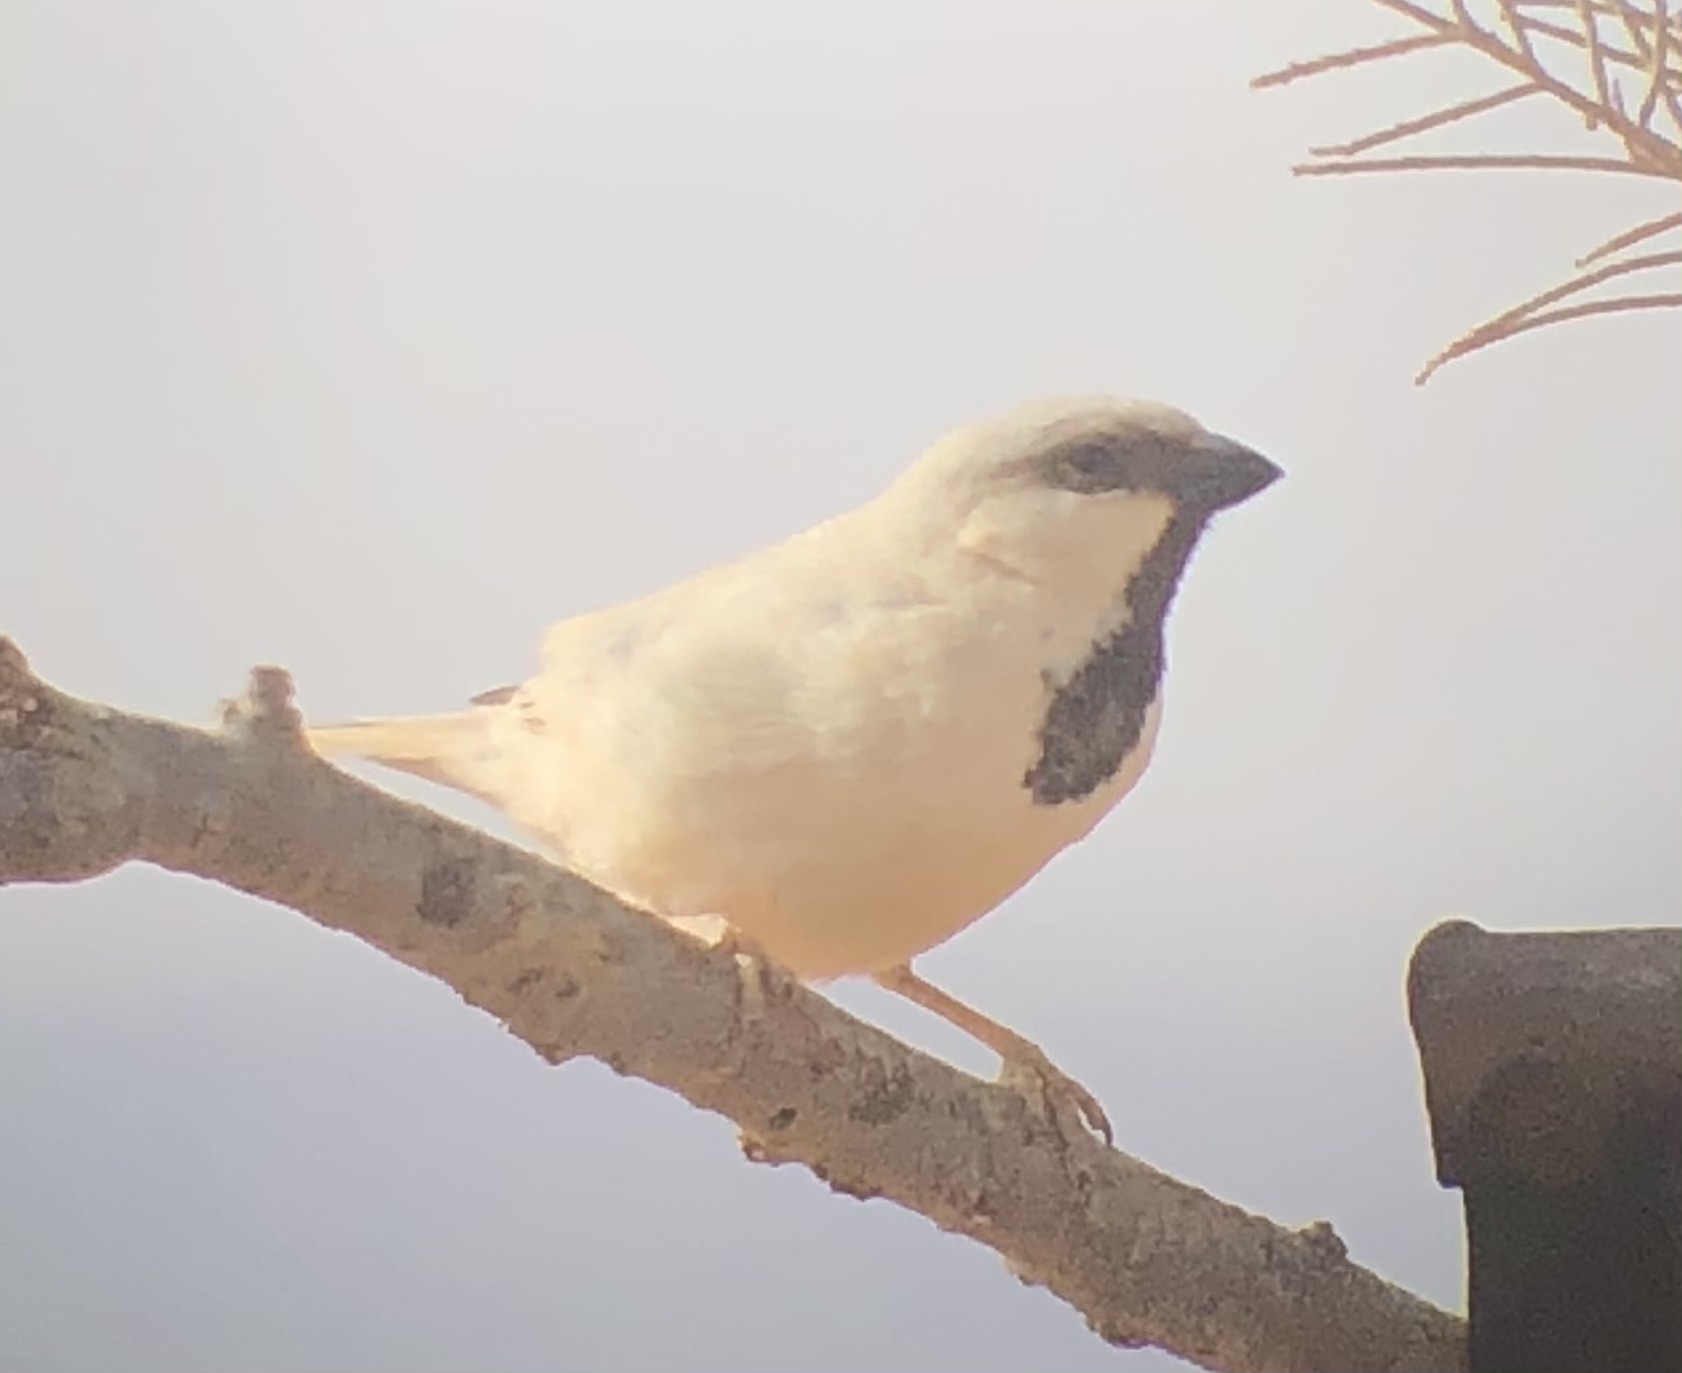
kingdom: Animalia
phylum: Chordata
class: Aves
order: Passeriformes
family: Passeridae
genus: Passer
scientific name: Passer simplex
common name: Desert sparrow
